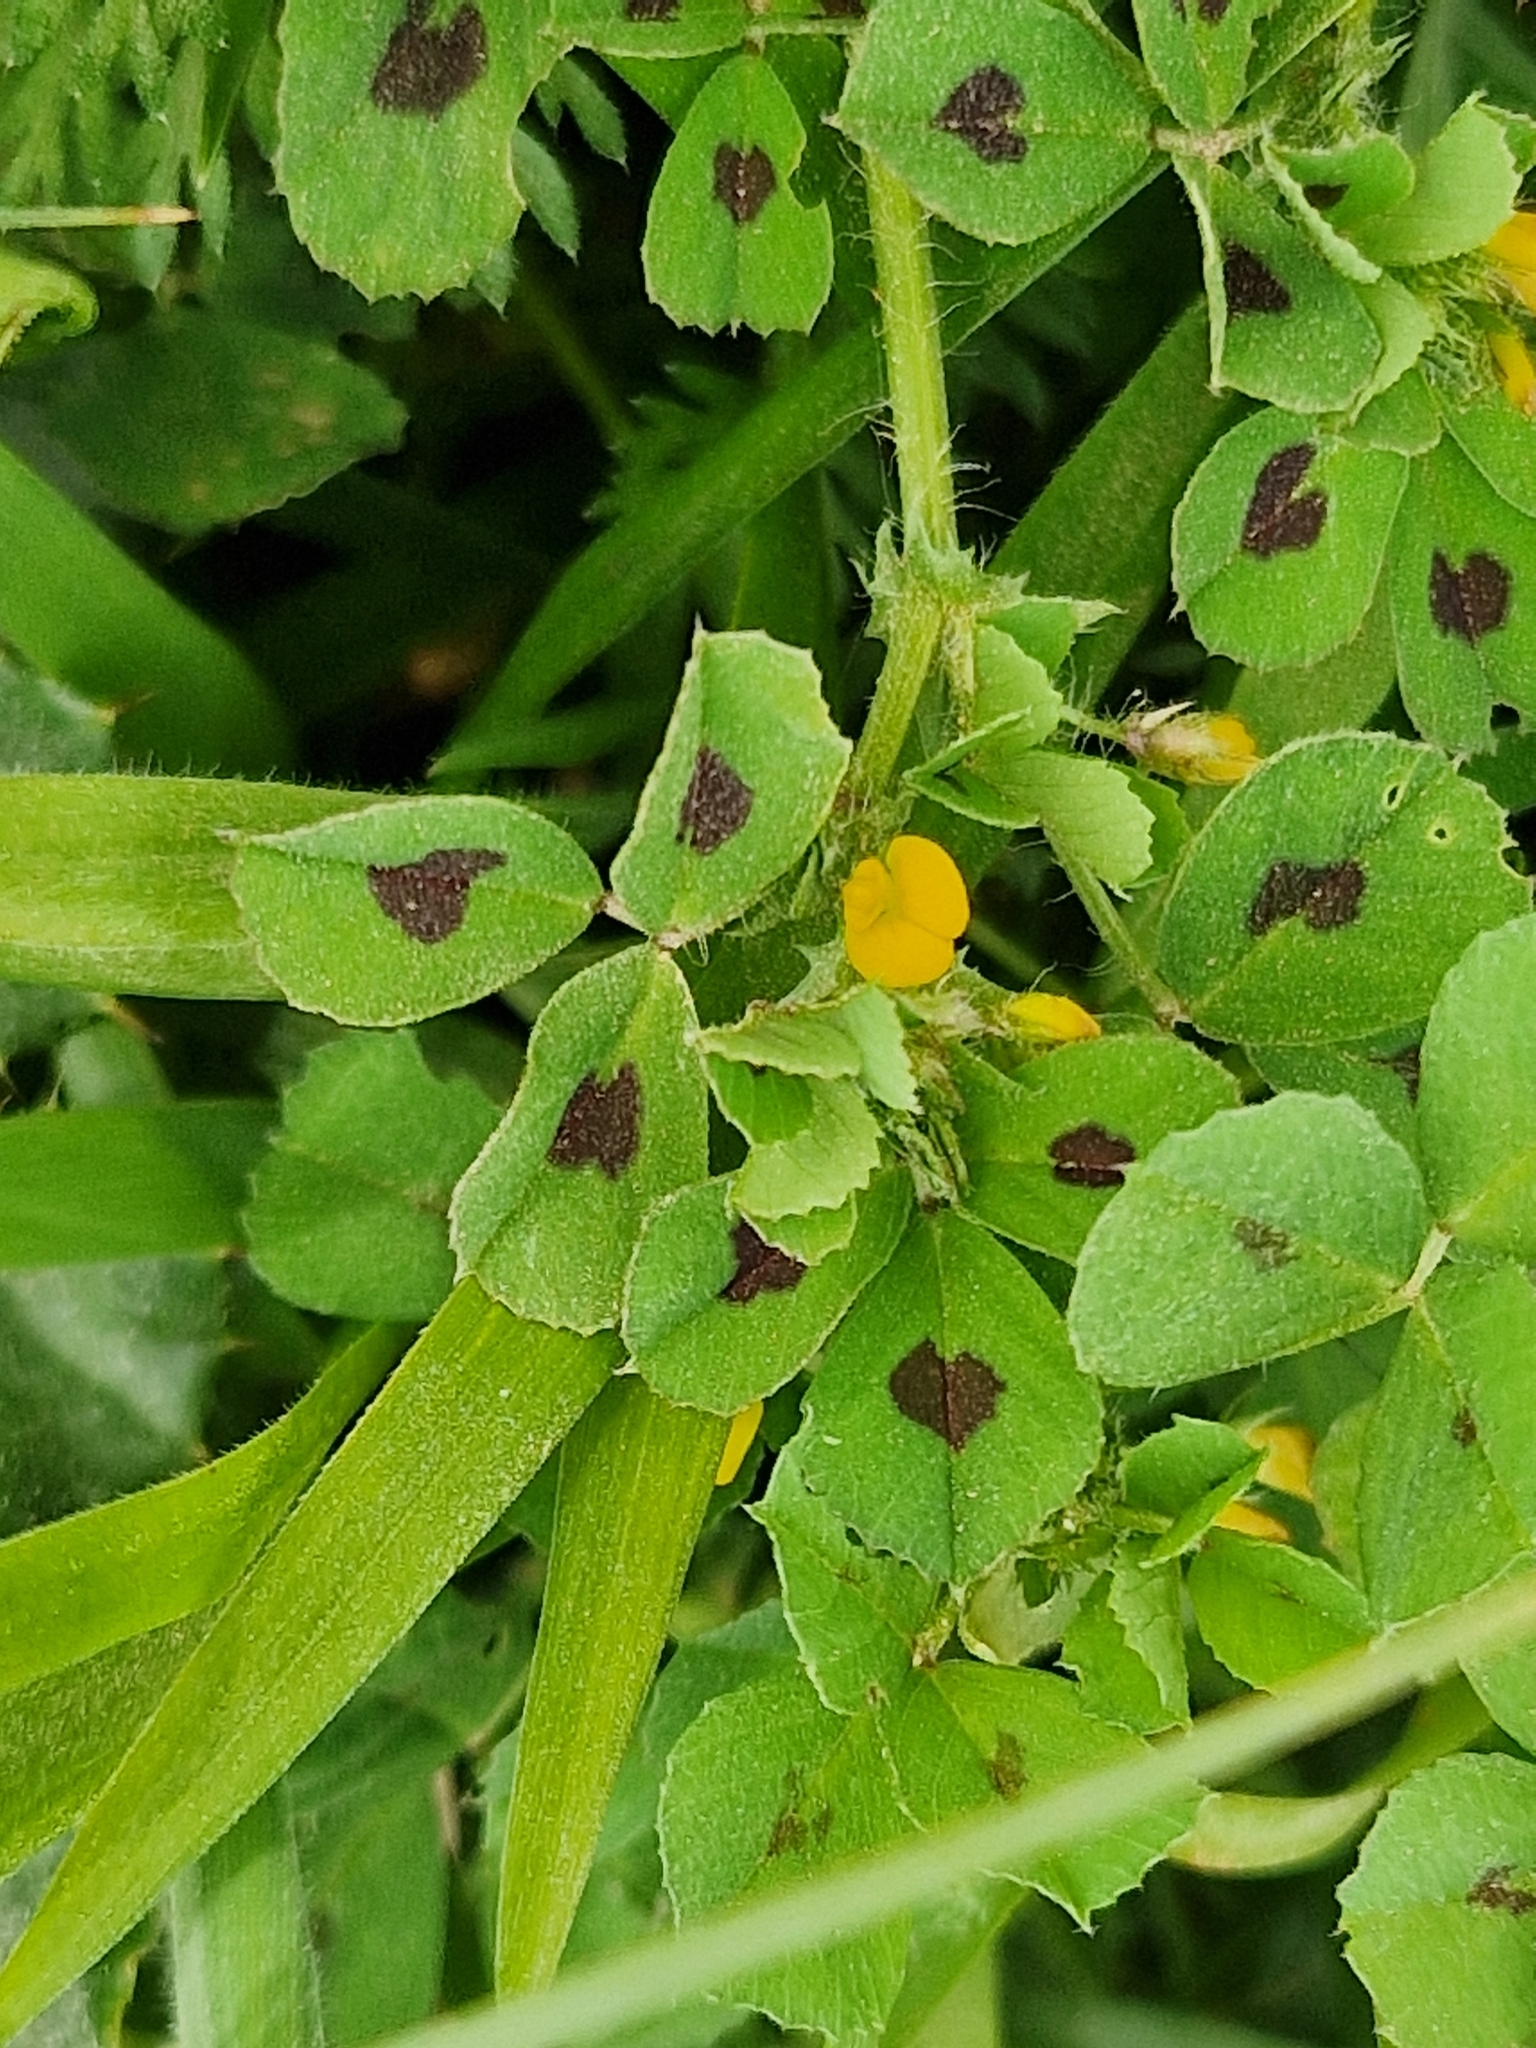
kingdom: Plantae
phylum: Tracheophyta
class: Magnoliopsida
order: Fabales
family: Fabaceae
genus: Medicago
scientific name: Medicago arabica
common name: Spotted medick
